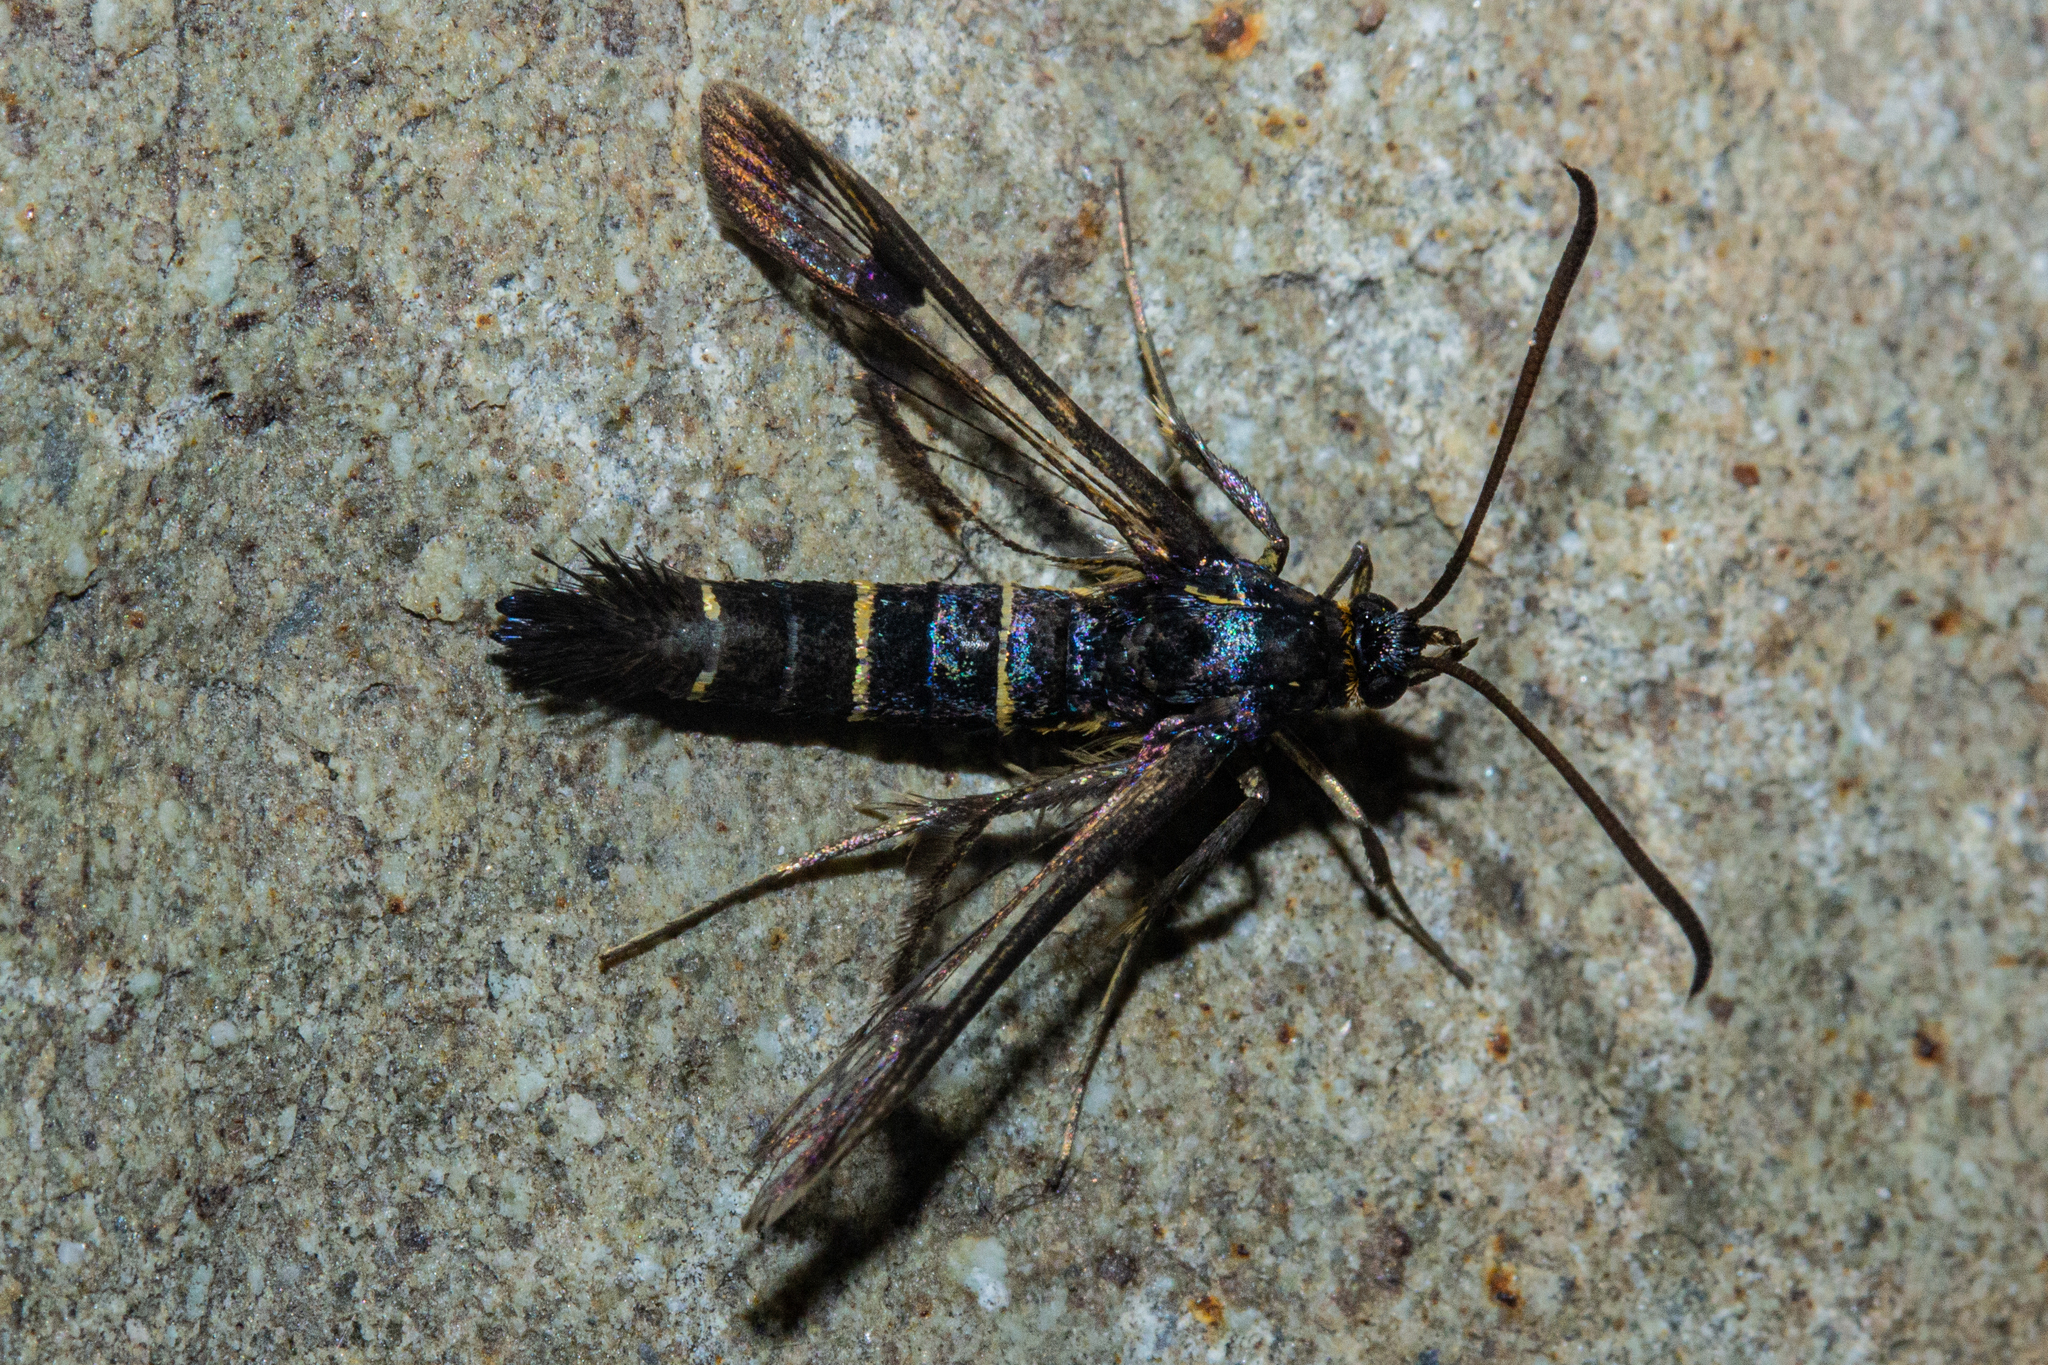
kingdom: Animalia
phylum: Arthropoda
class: Insecta
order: Lepidoptera
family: Sesiidae
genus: Synanthedon
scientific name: Synanthedon tipuliformis
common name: Currant clearwing
